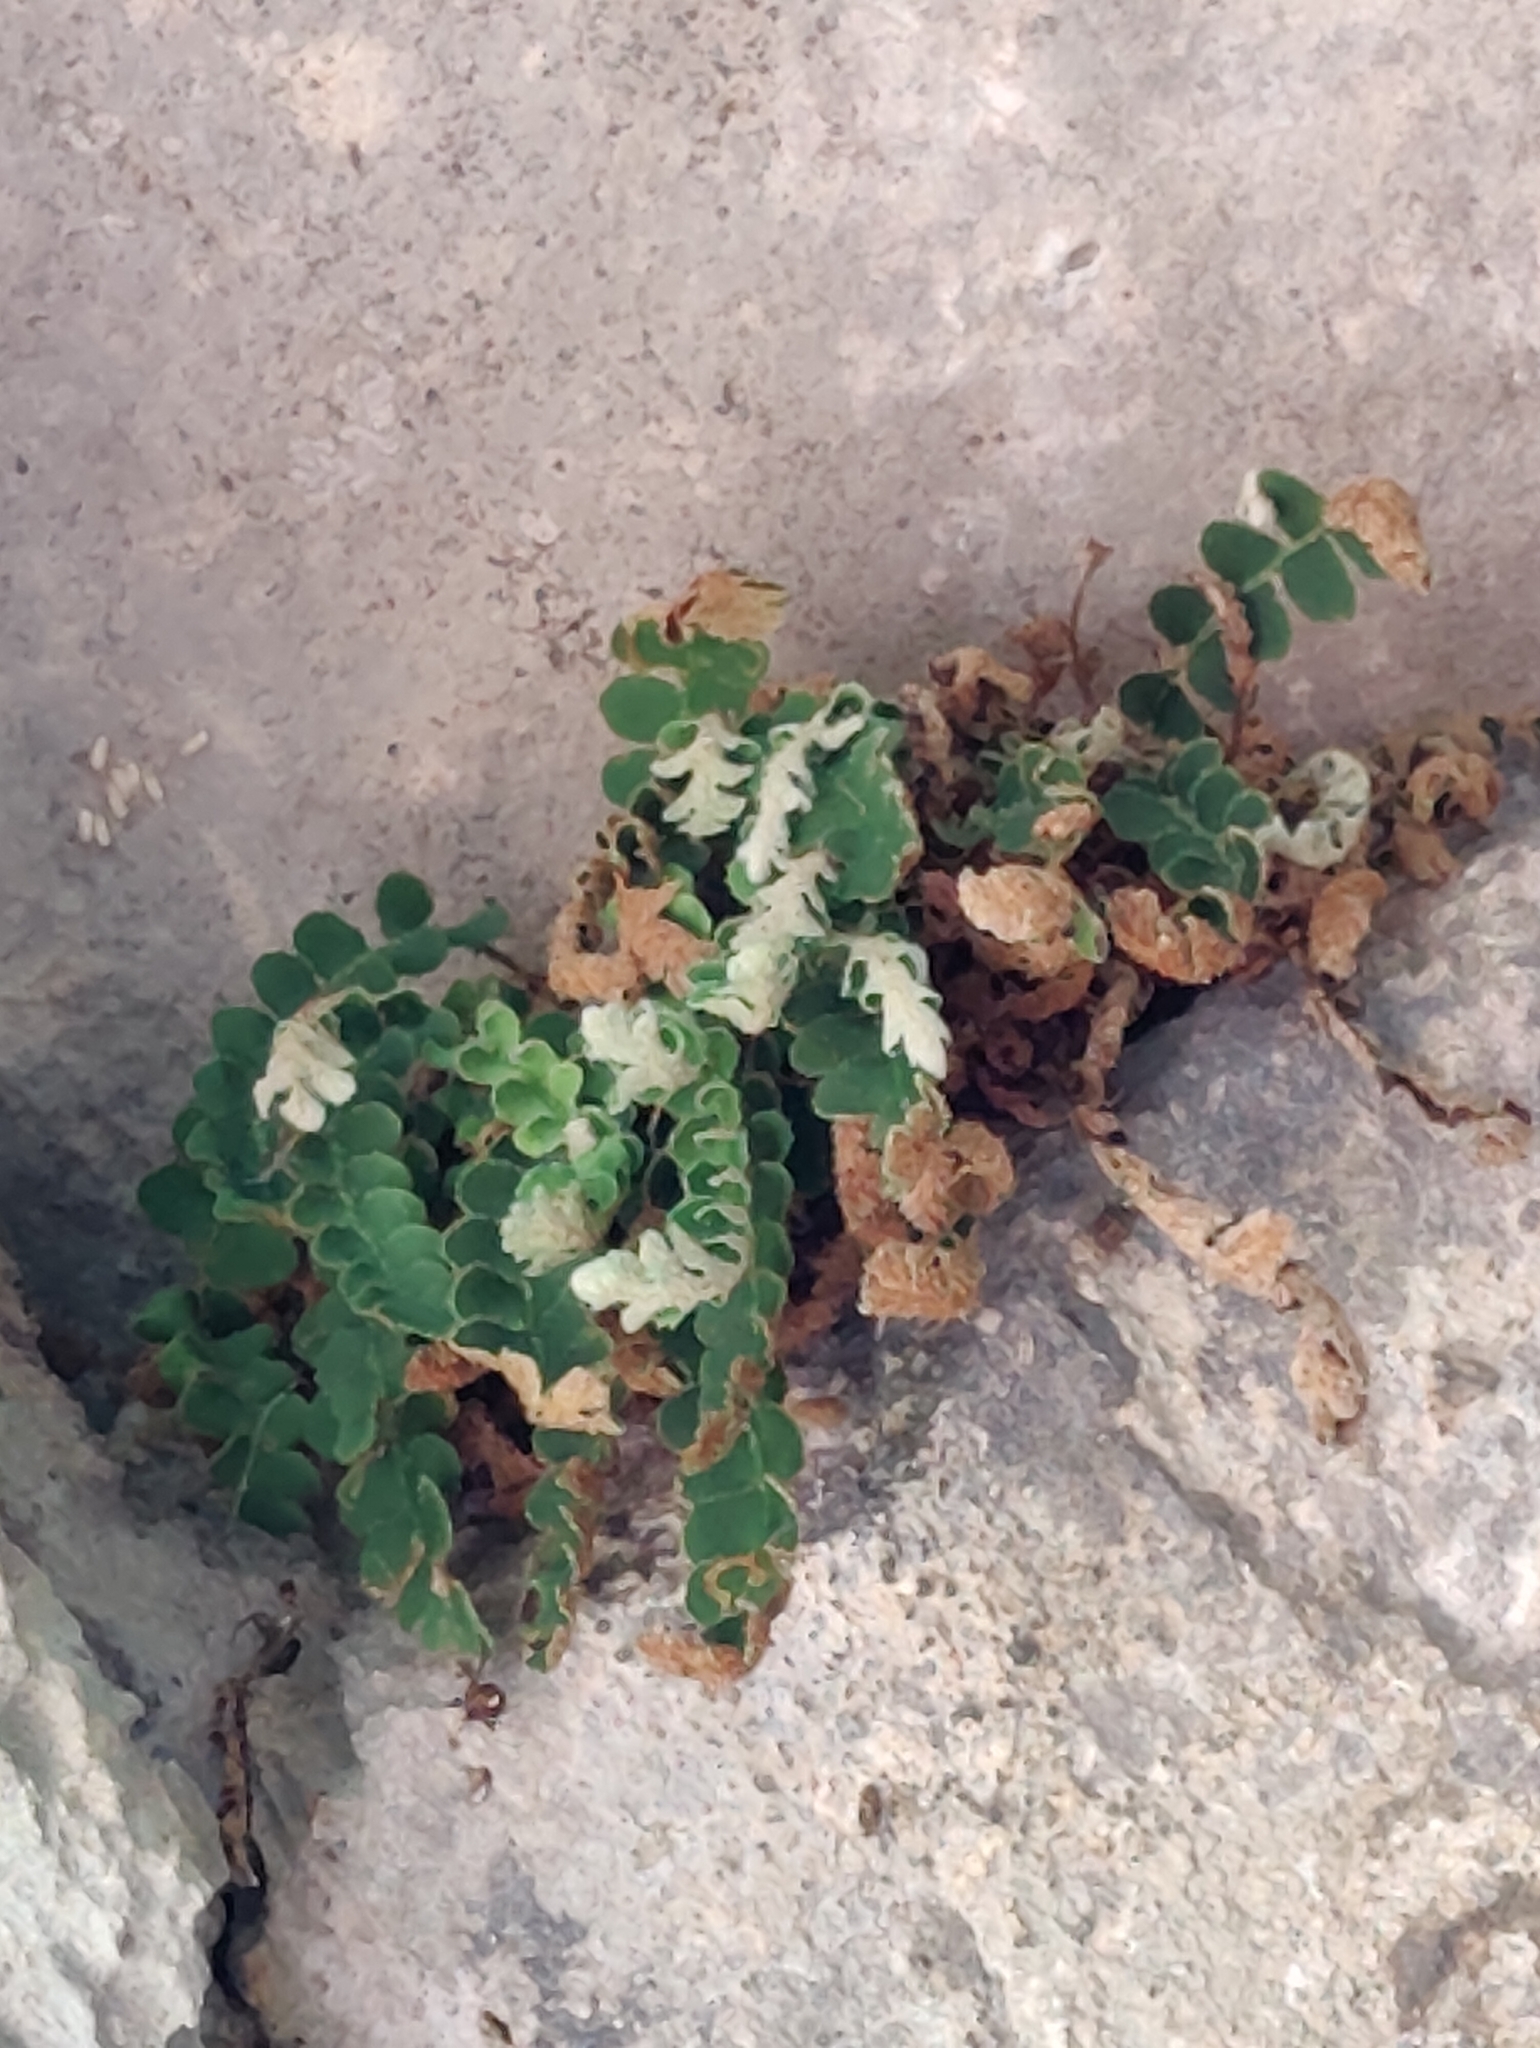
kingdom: Plantae
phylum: Tracheophyta
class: Polypodiopsida
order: Polypodiales
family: Aspleniaceae
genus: Asplenium
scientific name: Asplenium ceterach
